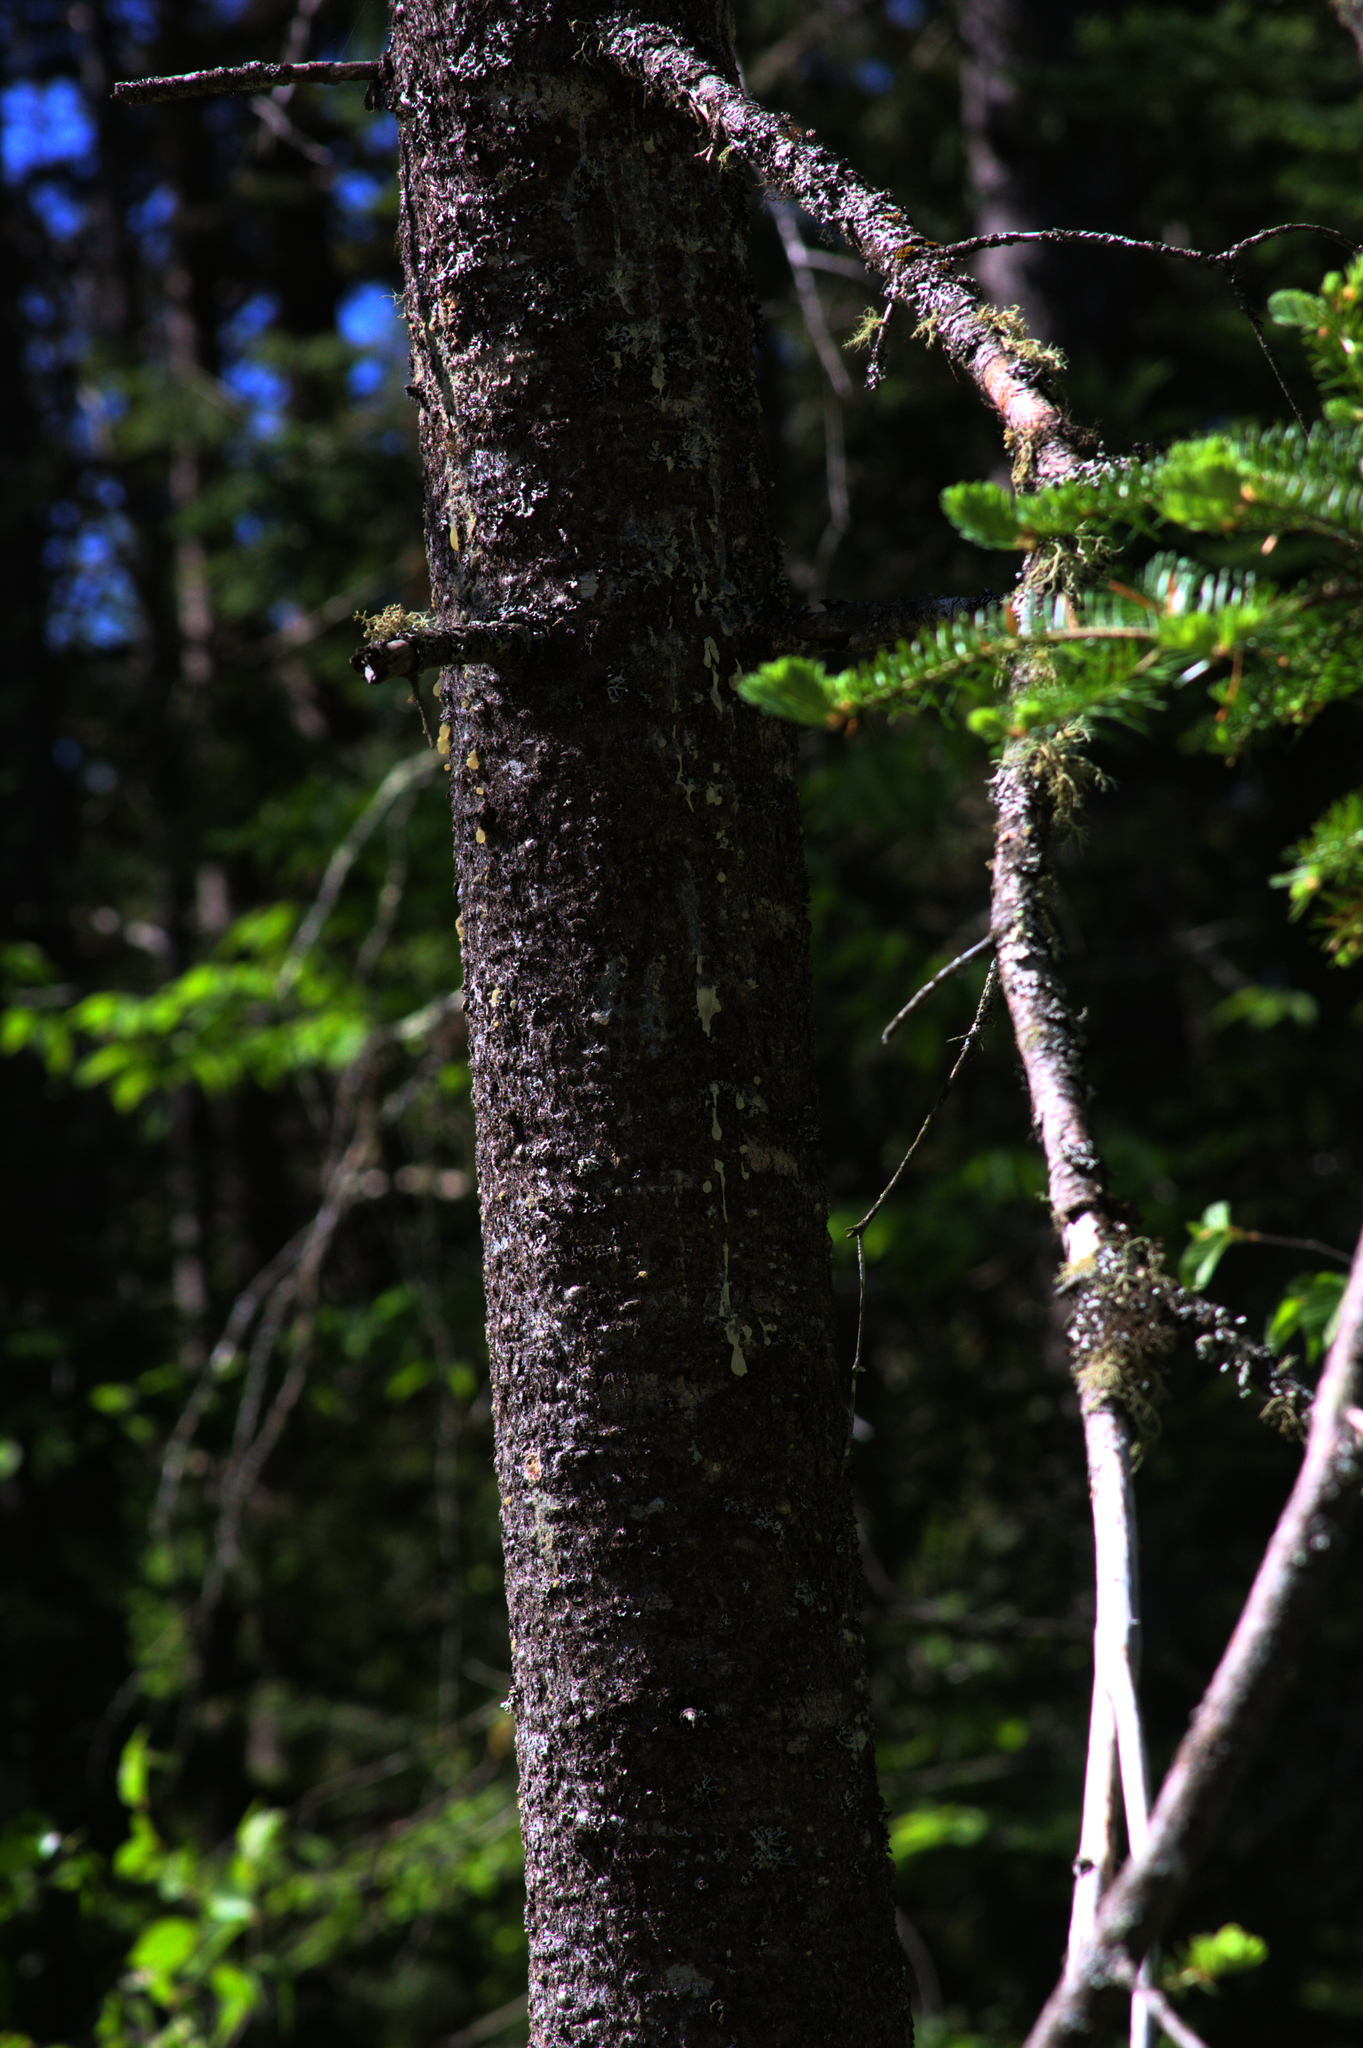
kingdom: Plantae
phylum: Tracheophyta
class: Pinopsida
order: Pinales
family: Pinaceae
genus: Abies
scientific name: Abies balsamea
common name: Balsam fir
